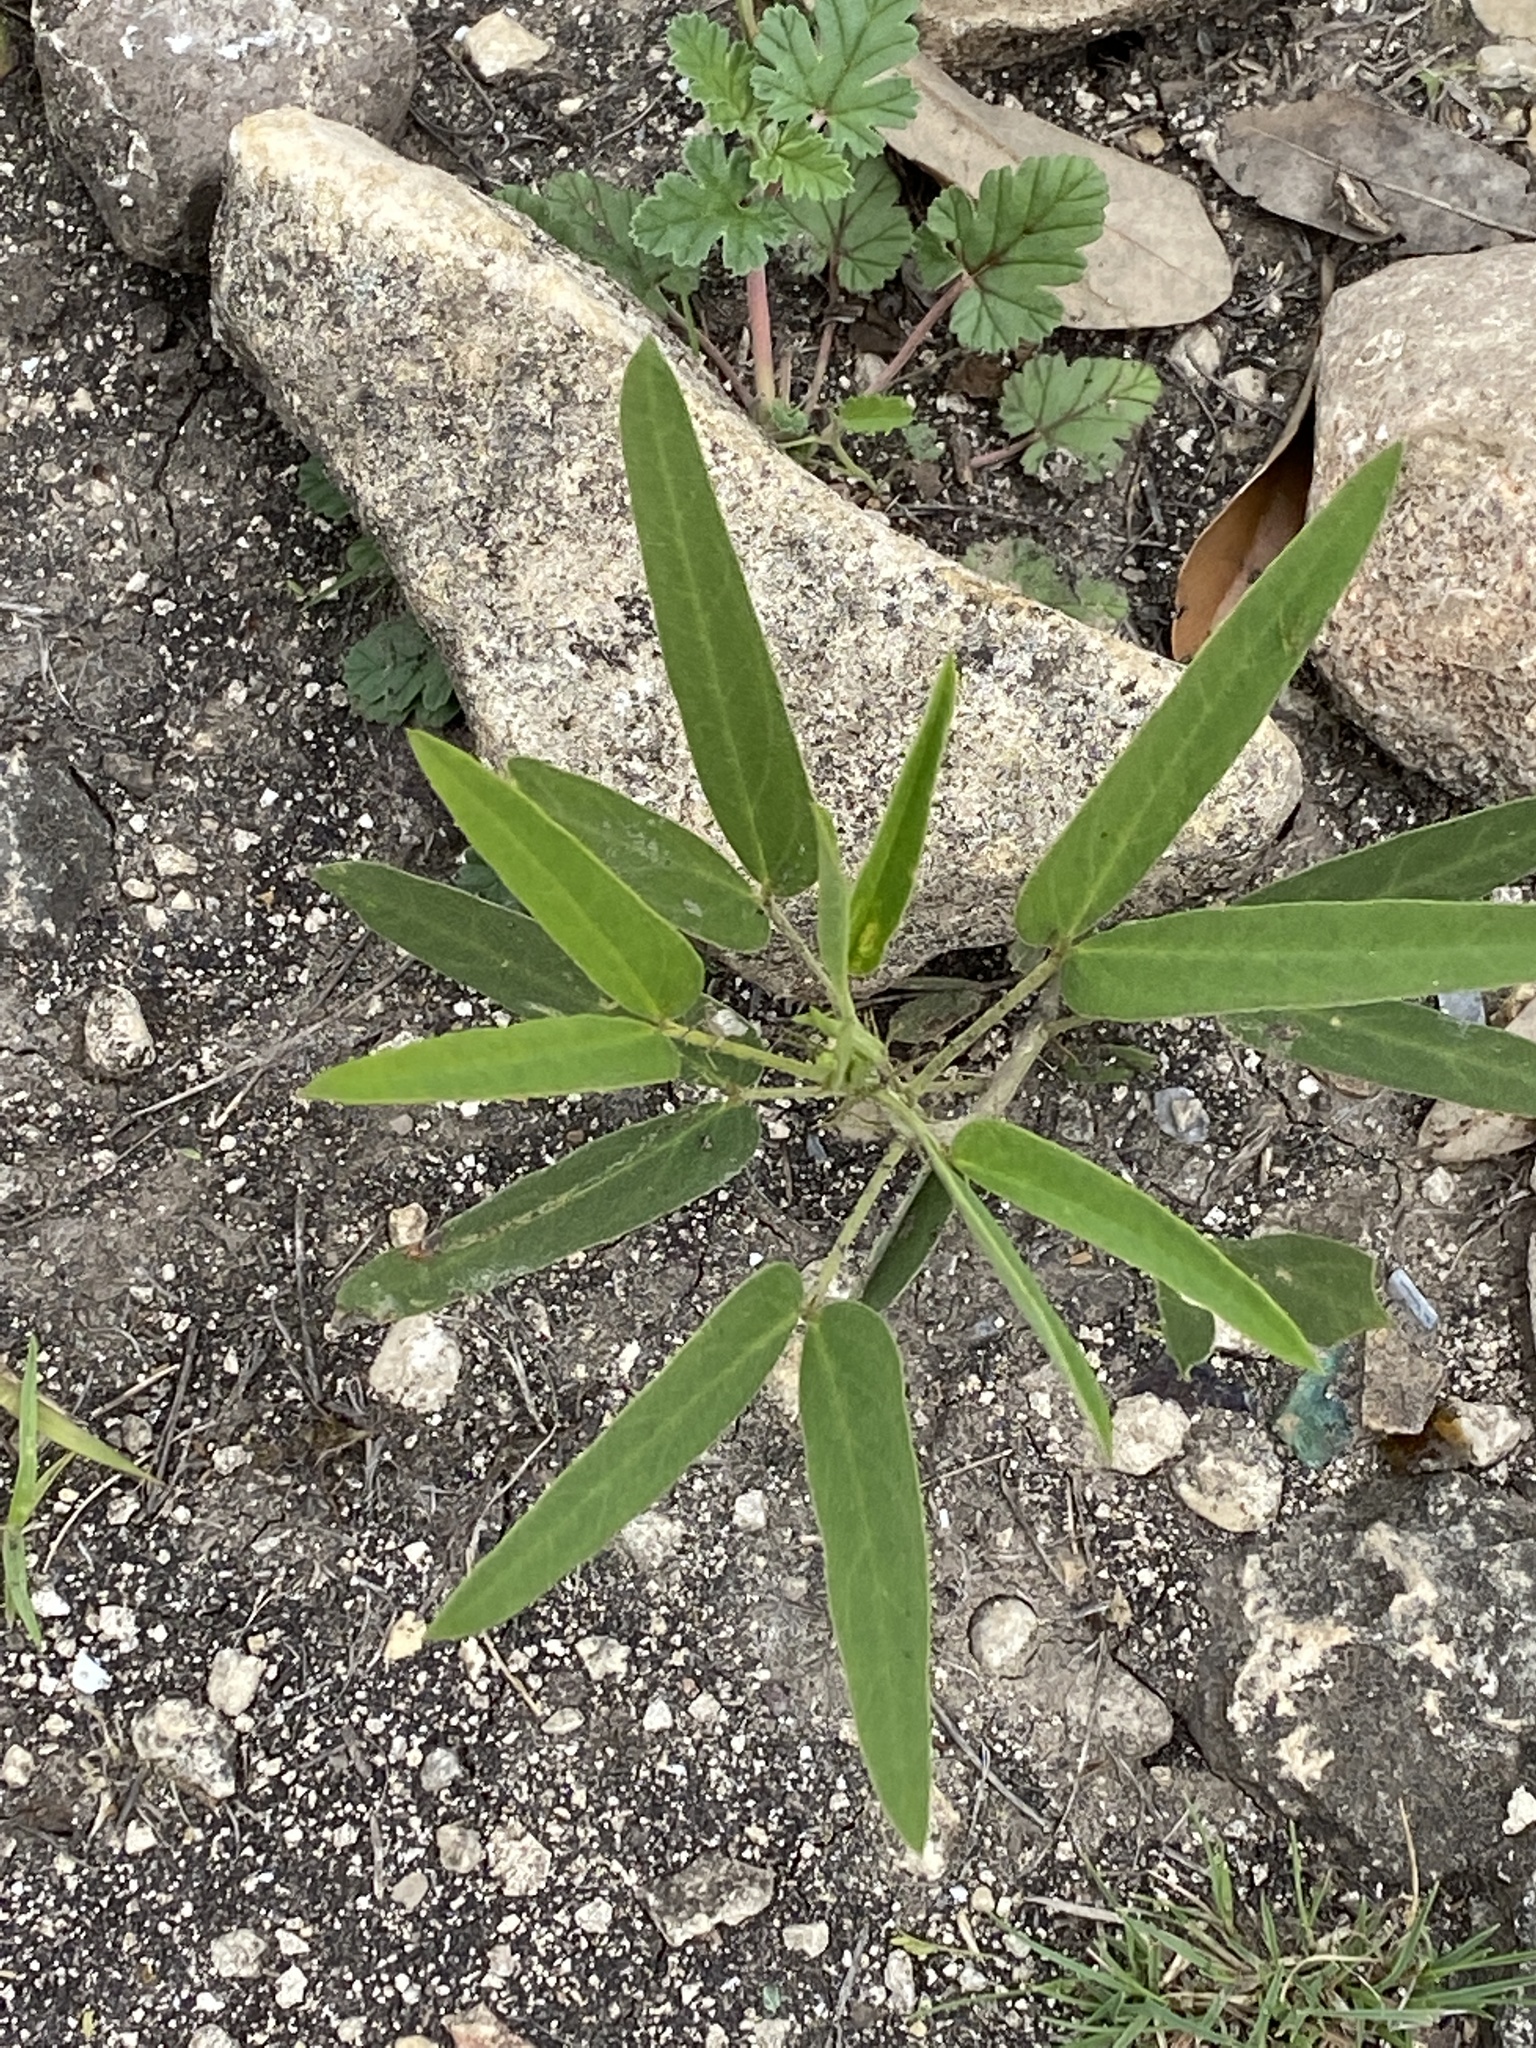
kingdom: Plantae
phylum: Tracheophyta
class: Magnoliopsida
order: Fabales
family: Fabaceae
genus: Senna
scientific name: Senna roemeriana
